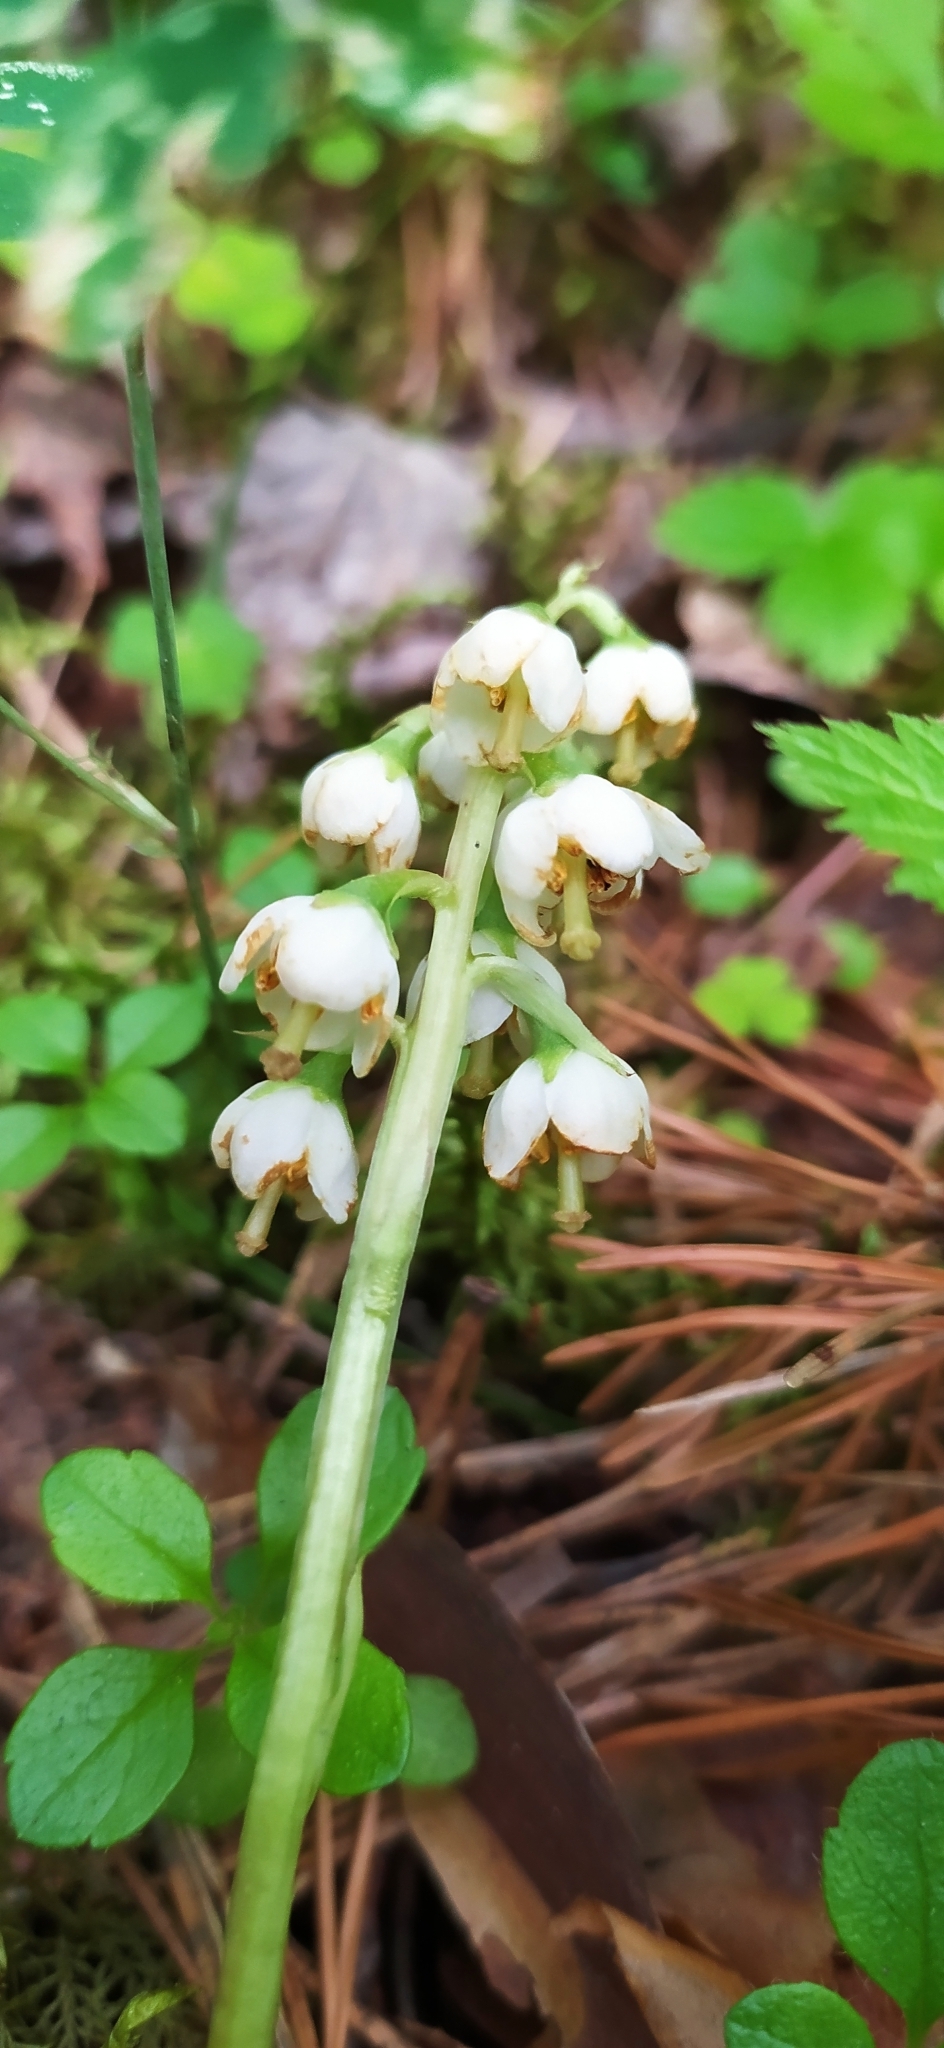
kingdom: Plantae
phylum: Tracheophyta
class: Magnoliopsida
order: Ericales
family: Ericaceae
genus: Pyrola
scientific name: Pyrola media
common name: Intermediate wintergreen
